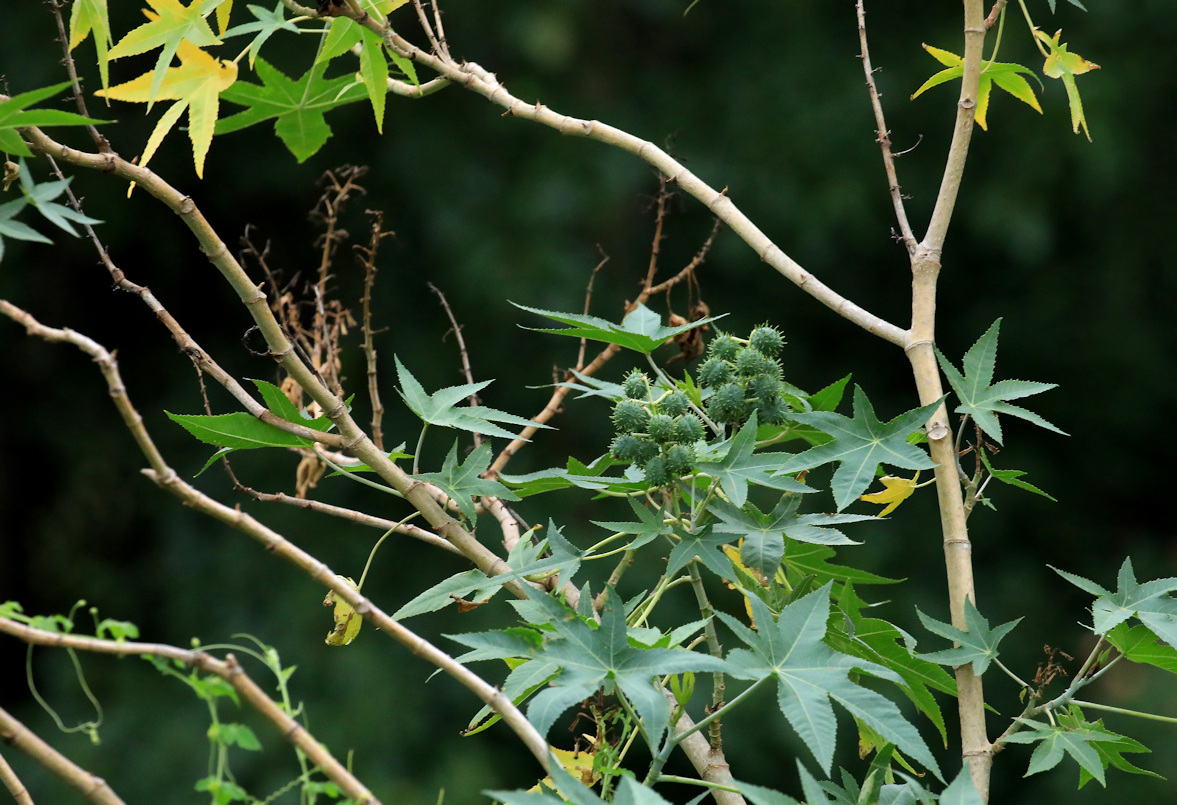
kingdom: Plantae
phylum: Tracheophyta
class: Magnoliopsida
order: Malpighiales
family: Euphorbiaceae
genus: Ricinus
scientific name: Ricinus communis
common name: Castor-oil-plant
